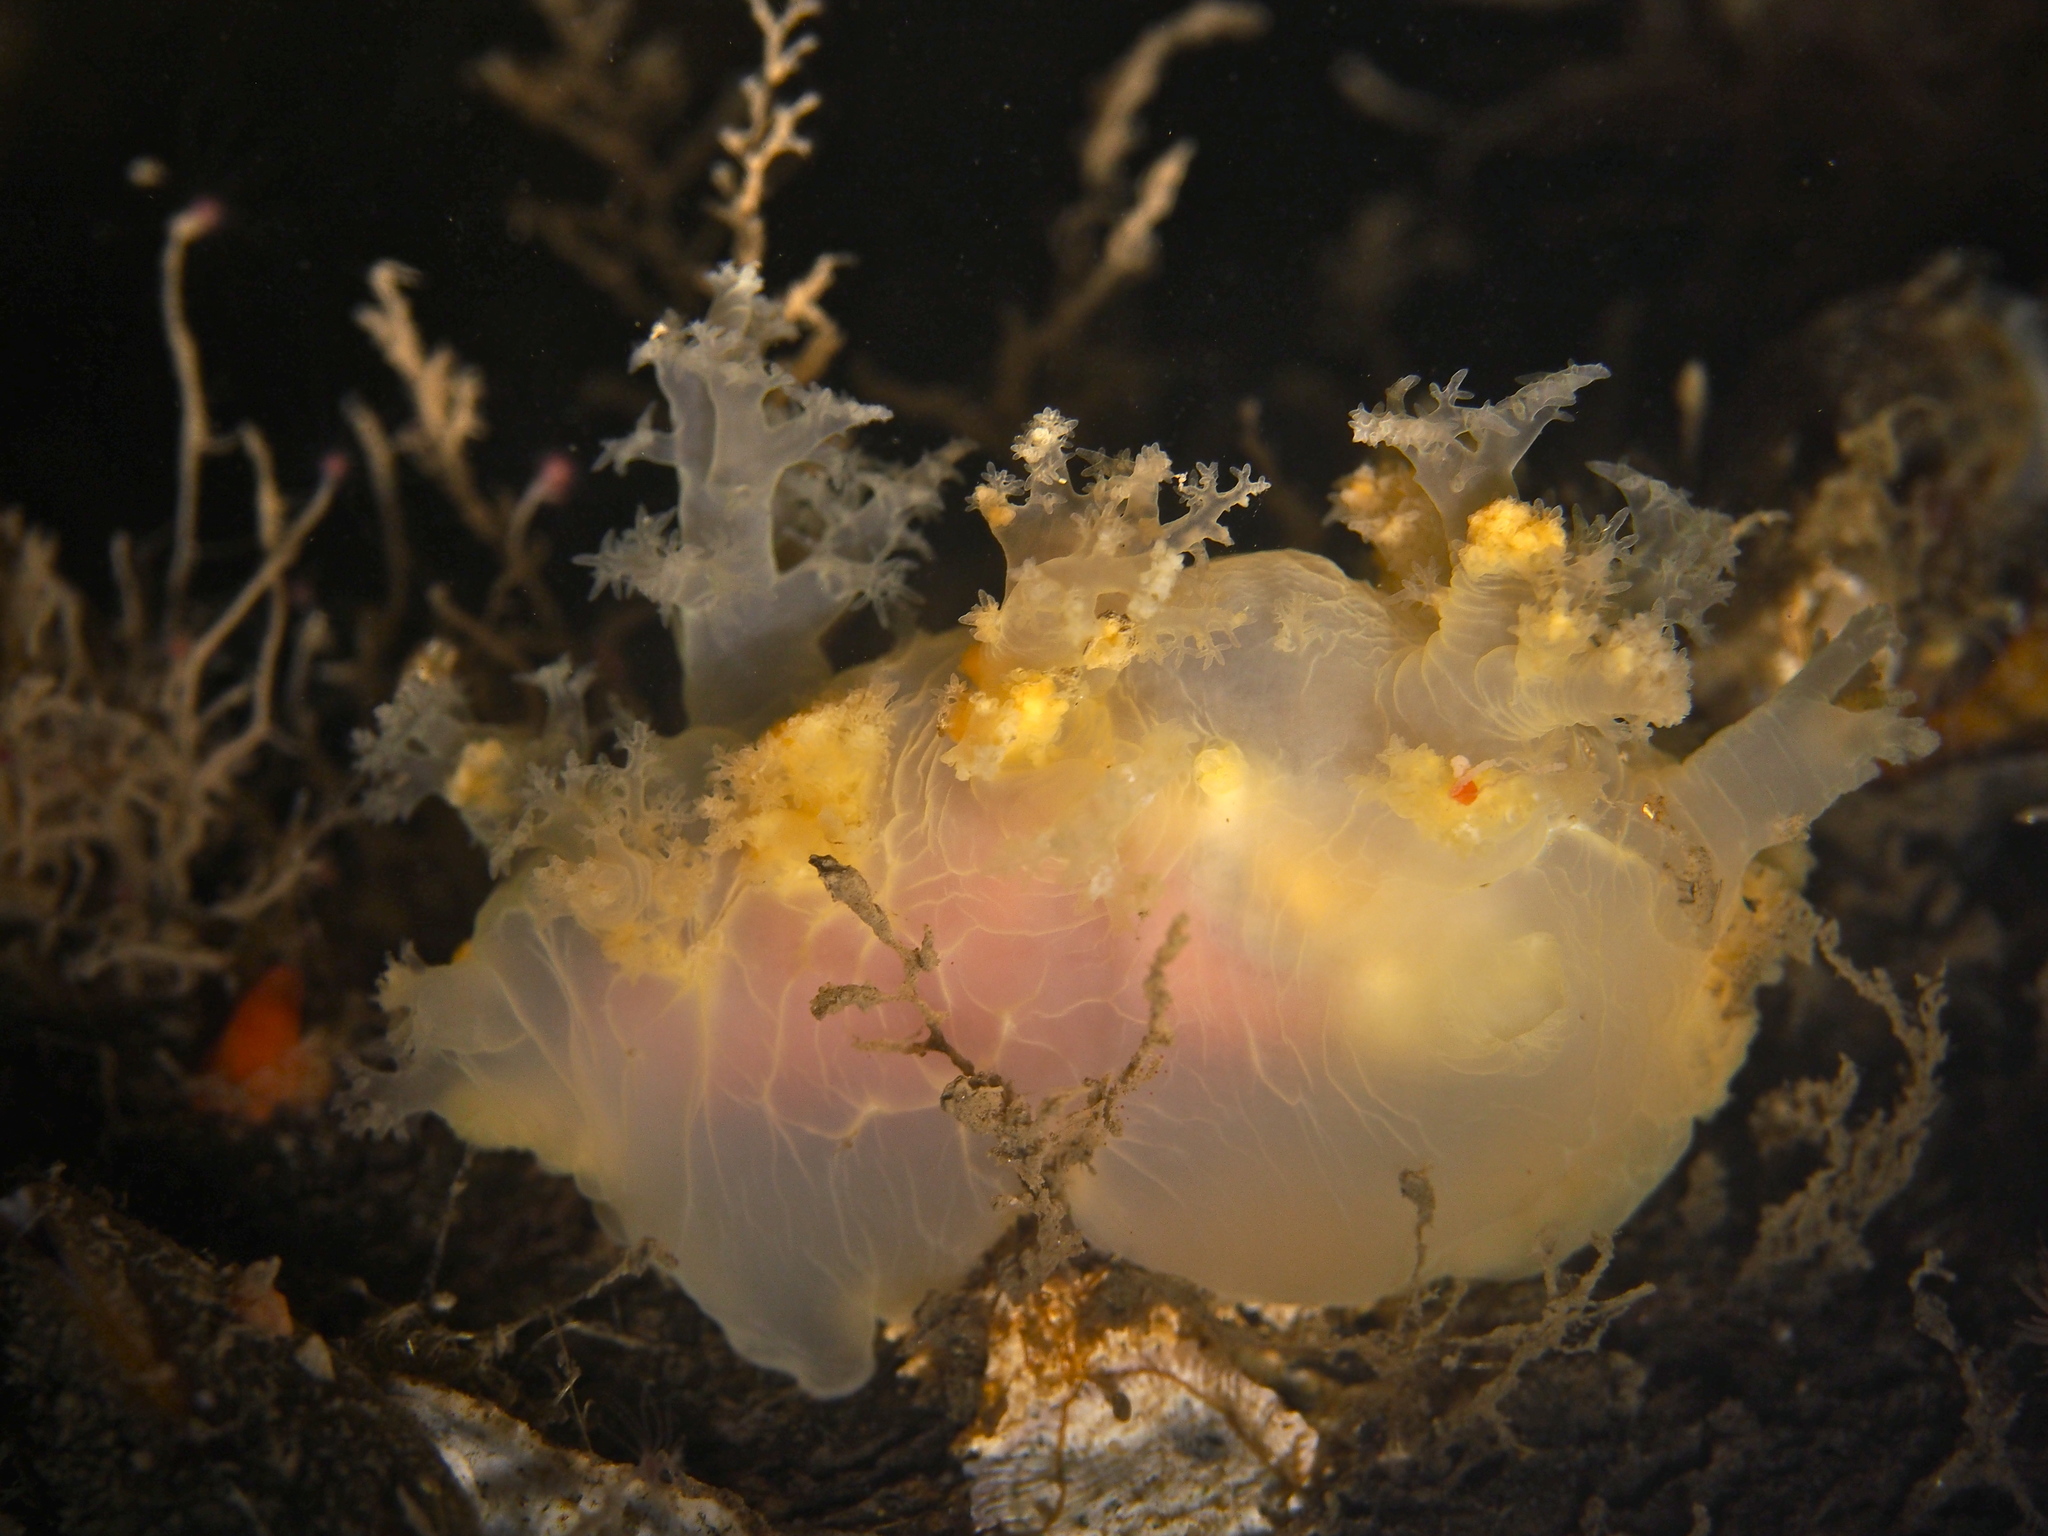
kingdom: Animalia
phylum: Mollusca
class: Gastropoda
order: Nudibranchia
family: Dendronotidae
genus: Dendronotus
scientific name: Dendronotus lacteus
